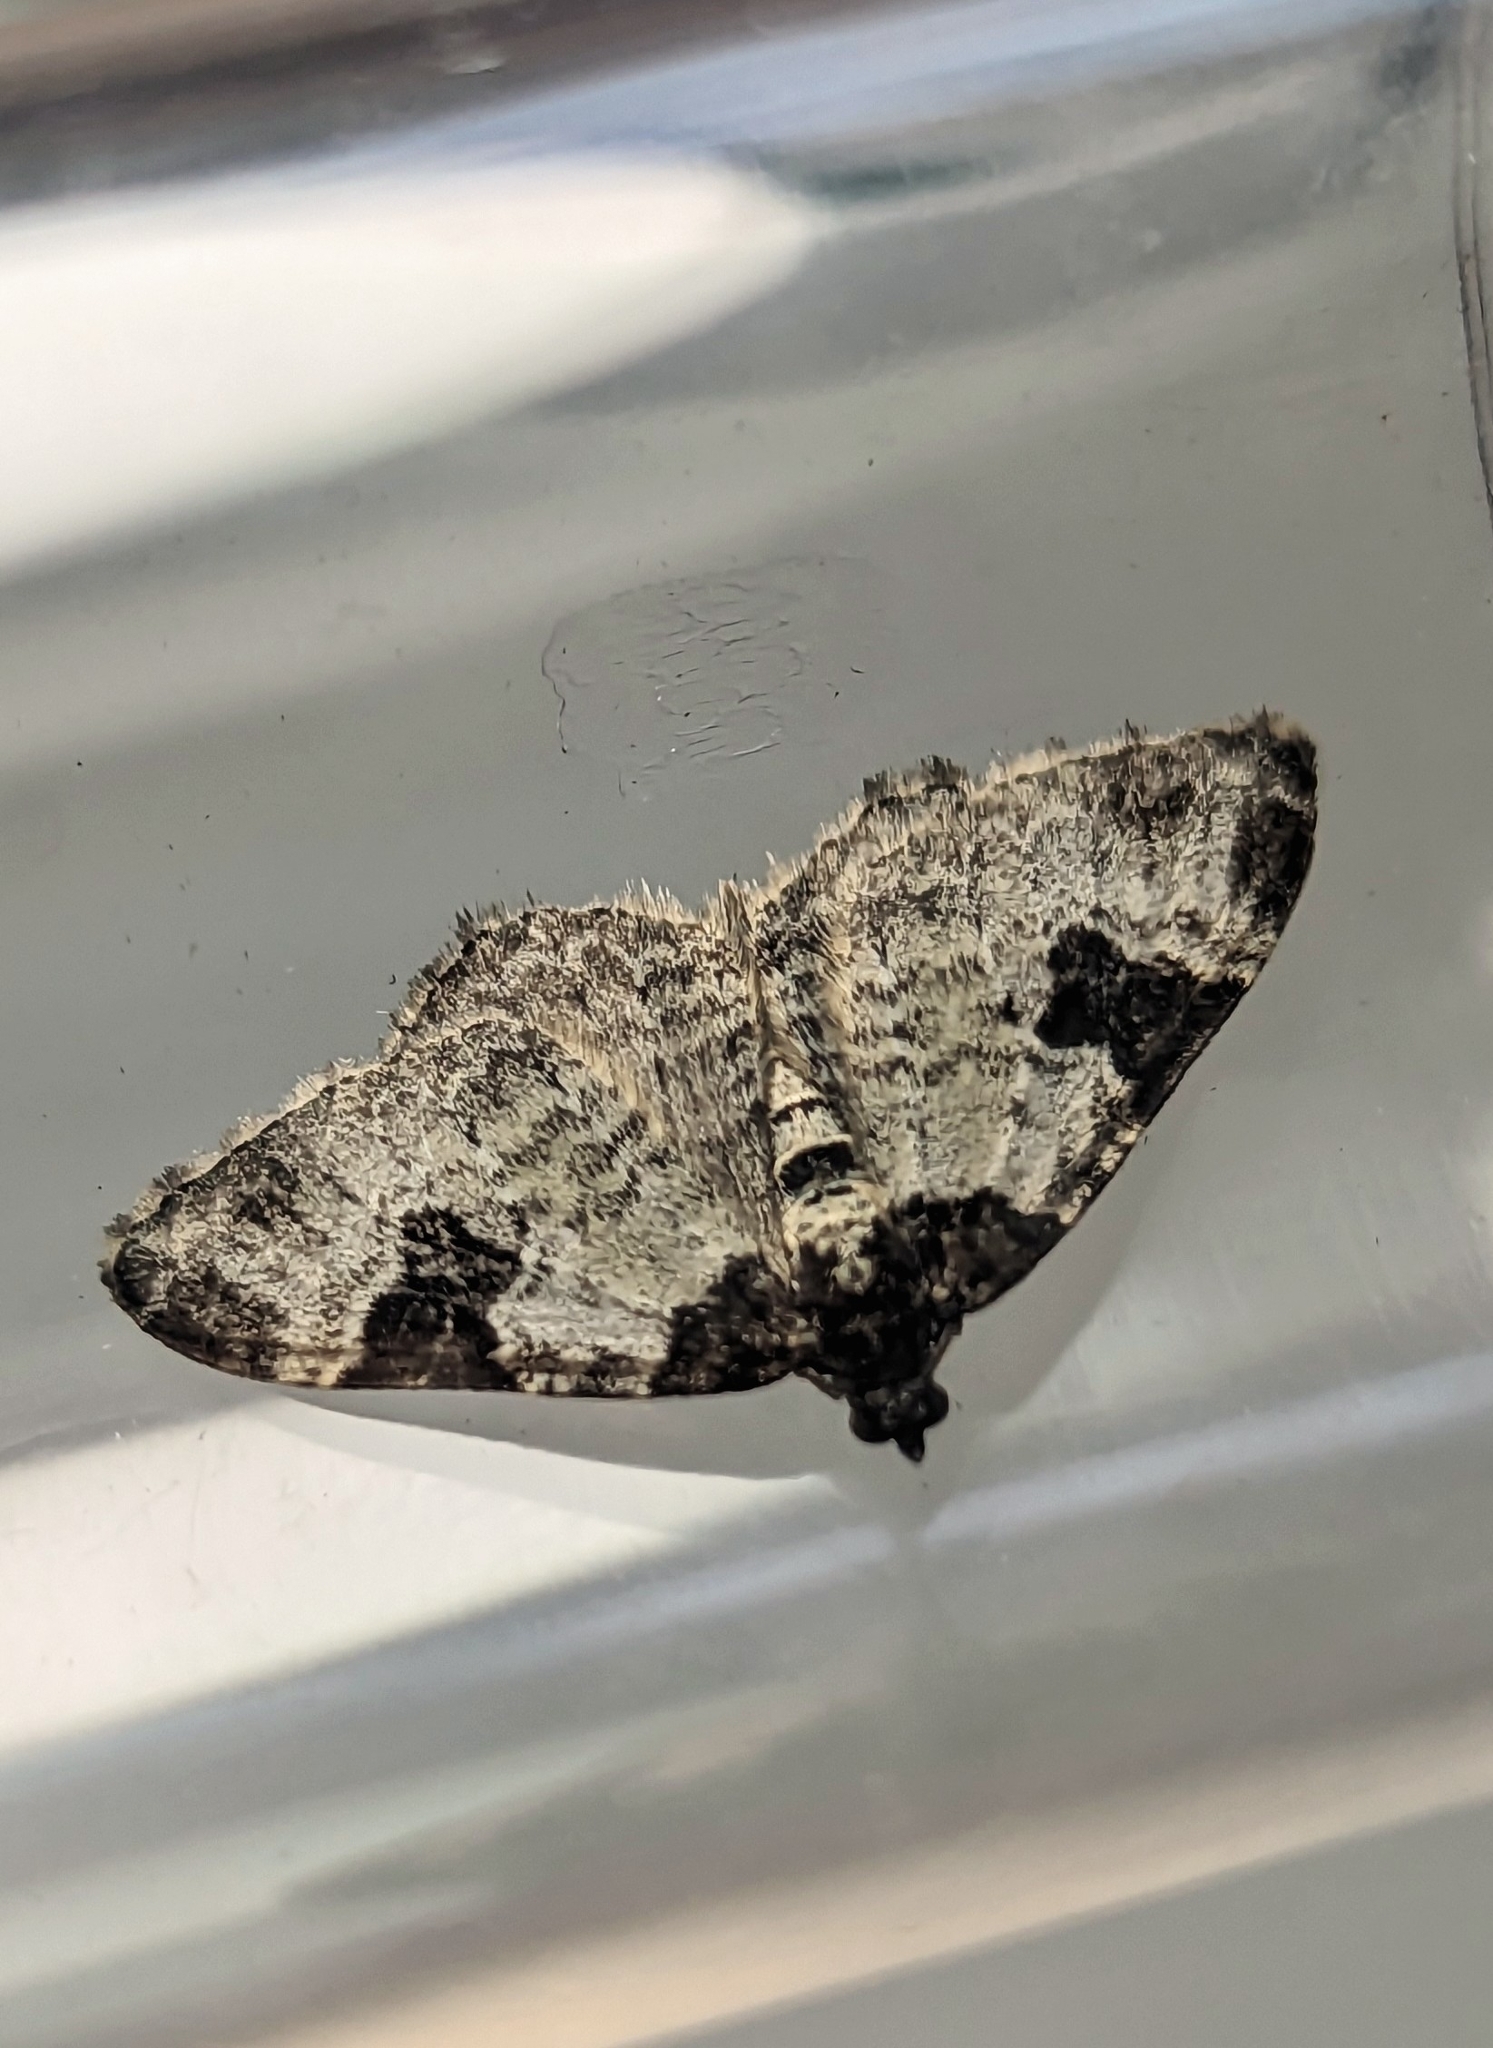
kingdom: Animalia
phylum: Arthropoda
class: Insecta
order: Lepidoptera
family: Geometridae
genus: Xanthorhoe
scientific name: Xanthorhoe fluctuata
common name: Garden carpet
